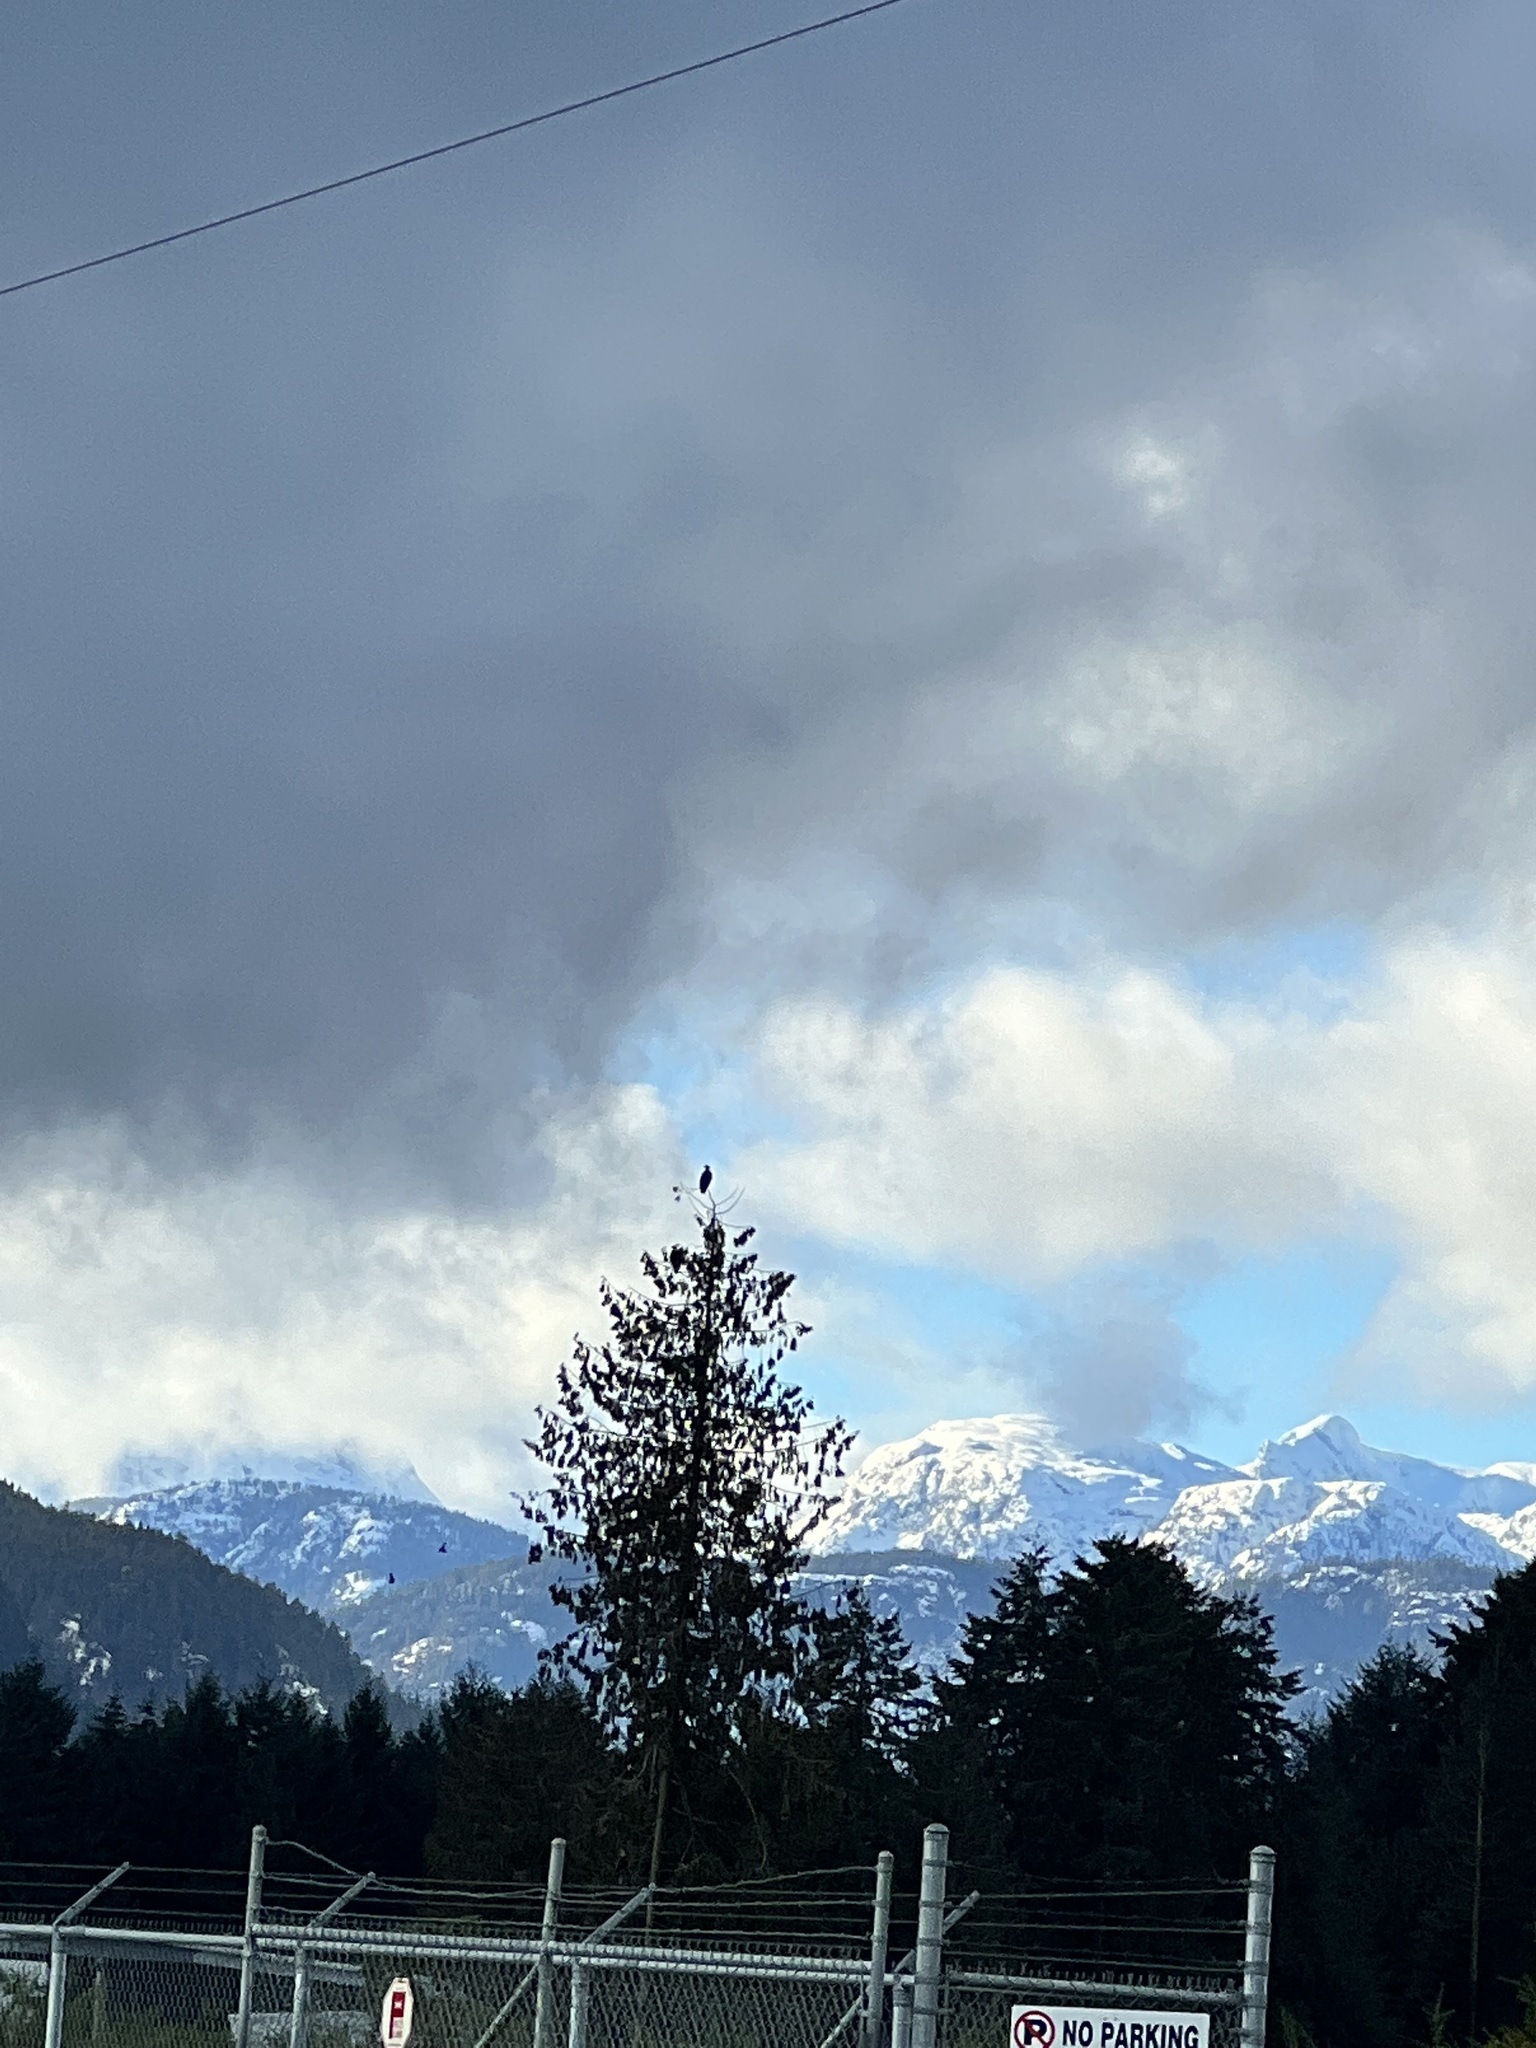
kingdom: Animalia
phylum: Chordata
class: Aves
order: Accipitriformes
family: Accipitridae
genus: Haliaeetus
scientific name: Haliaeetus leucocephalus
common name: Bald eagle
